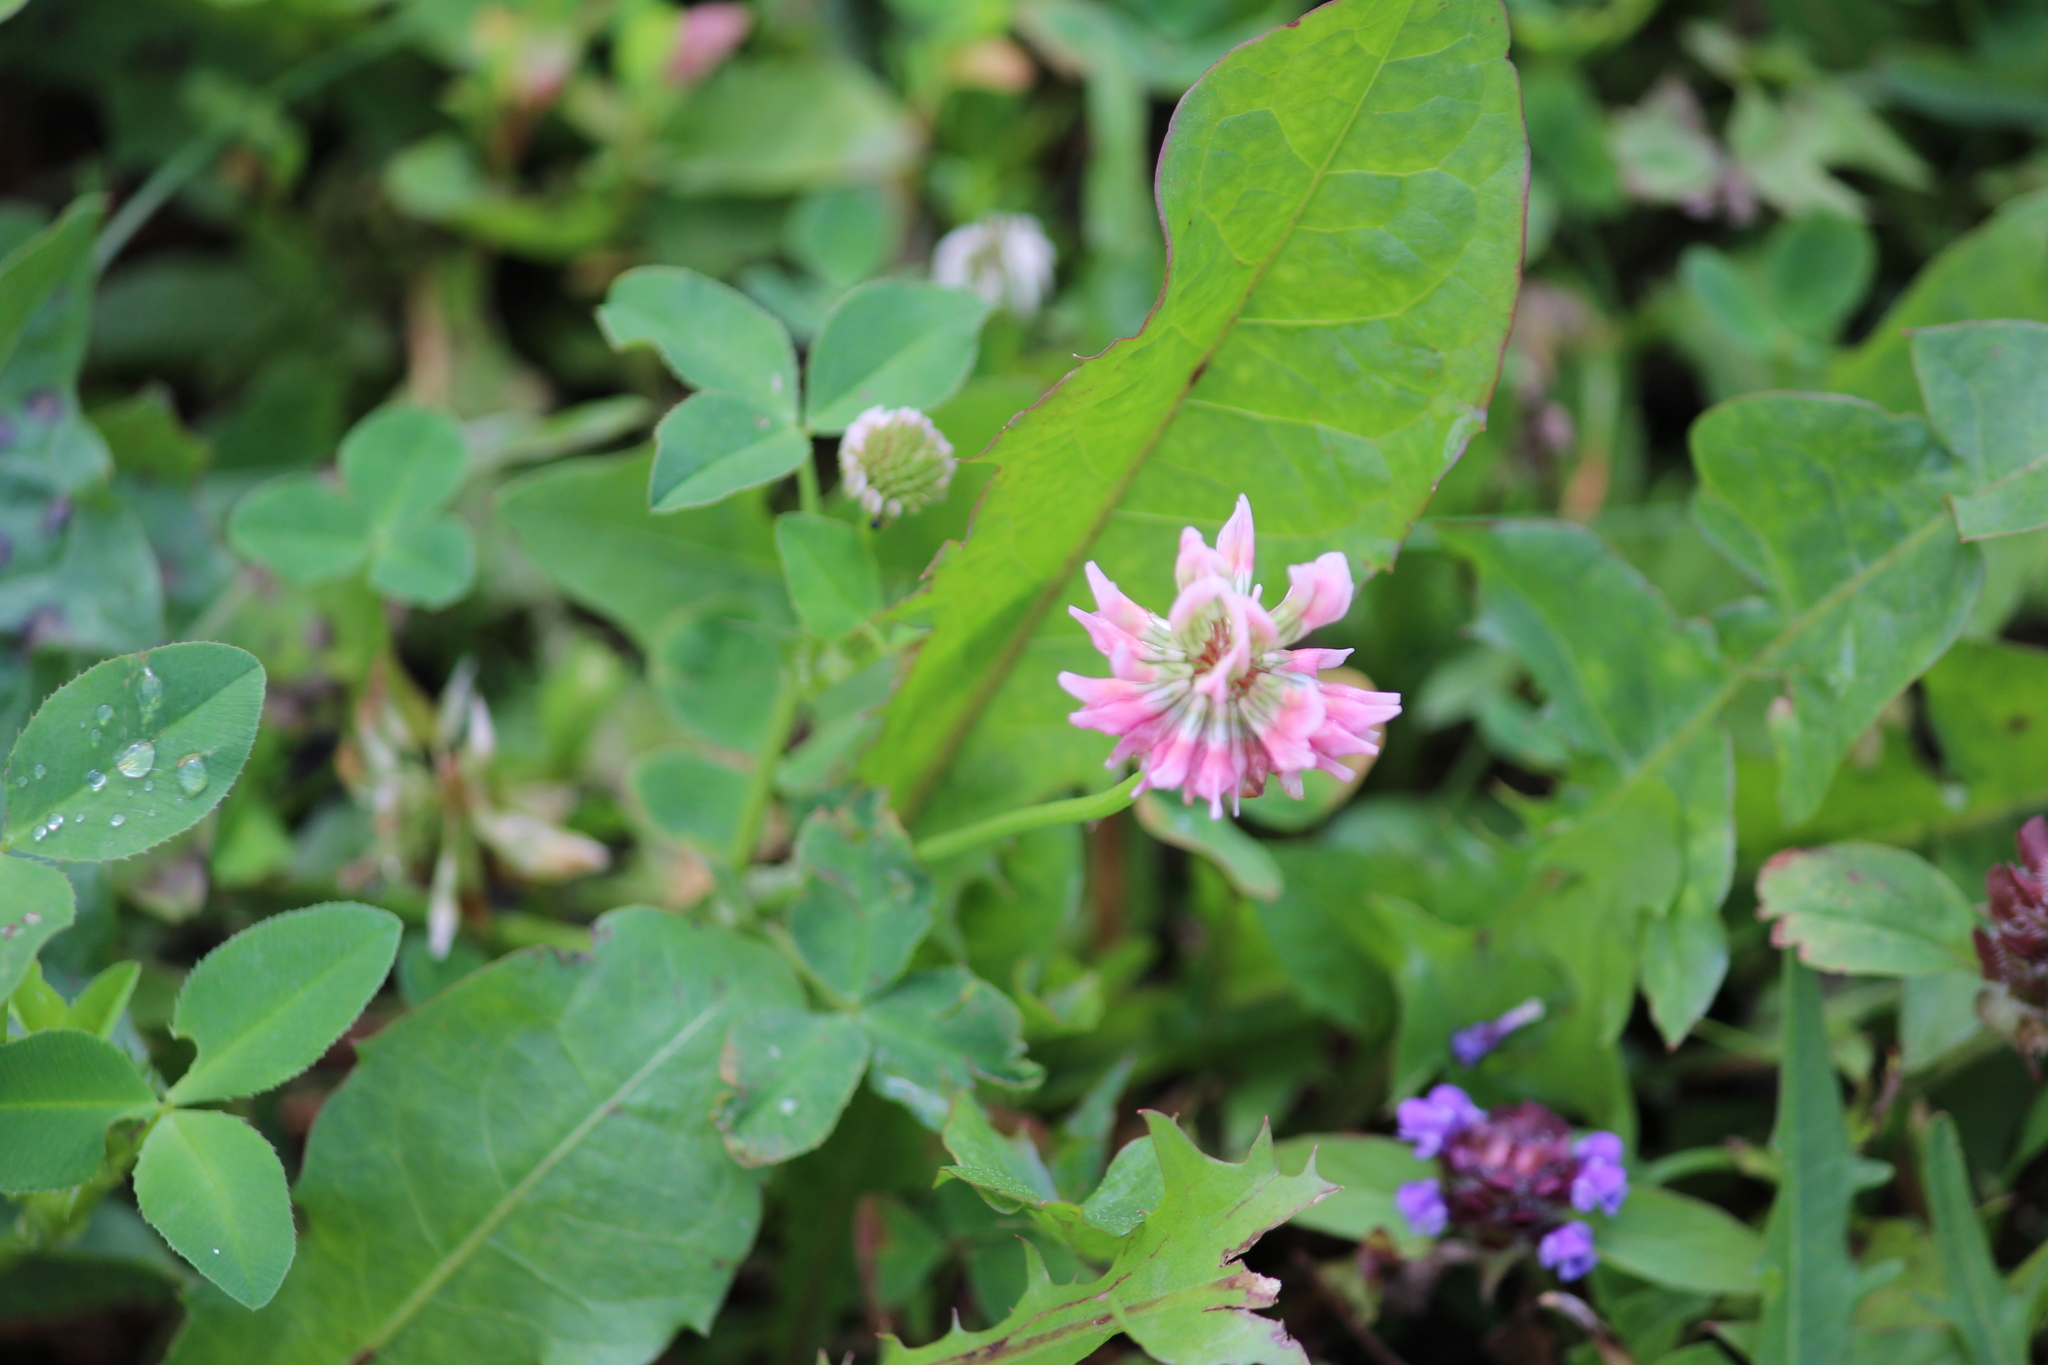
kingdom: Plantae
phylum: Tracheophyta
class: Magnoliopsida
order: Fabales
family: Fabaceae
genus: Trifolium
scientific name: Trifolium hybridum
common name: Alsike clover
